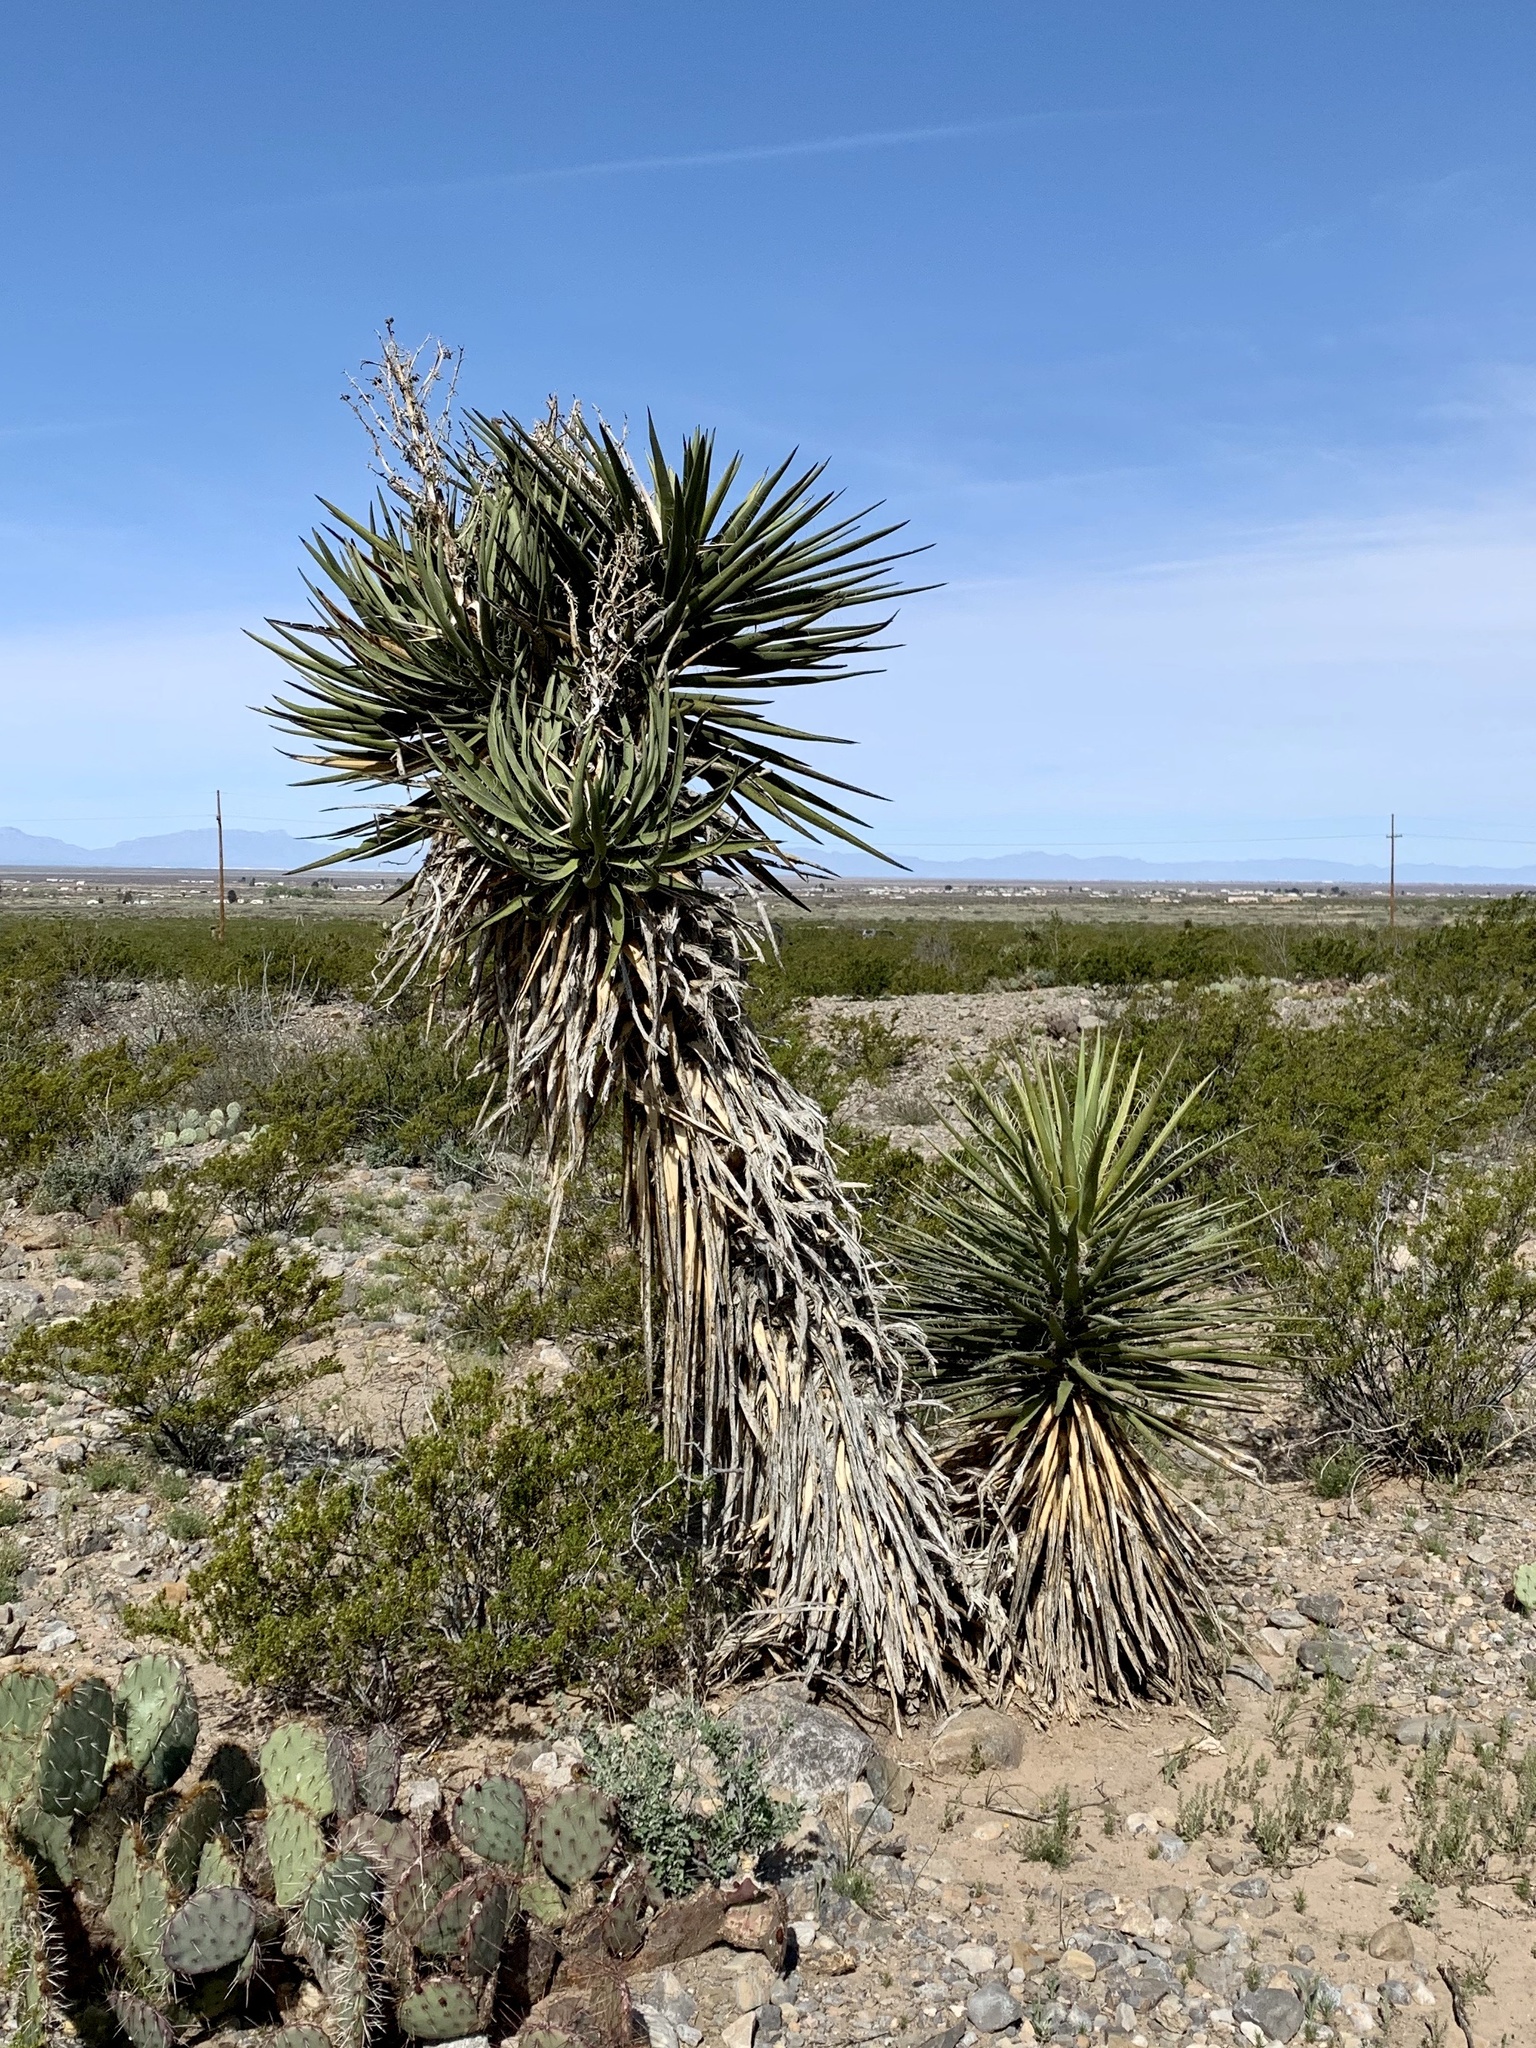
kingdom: Plantae
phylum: Tracheophyta
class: Liliopsida
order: Asparagales
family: Asparagaceae
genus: Yucca
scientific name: Yucca treculiana
